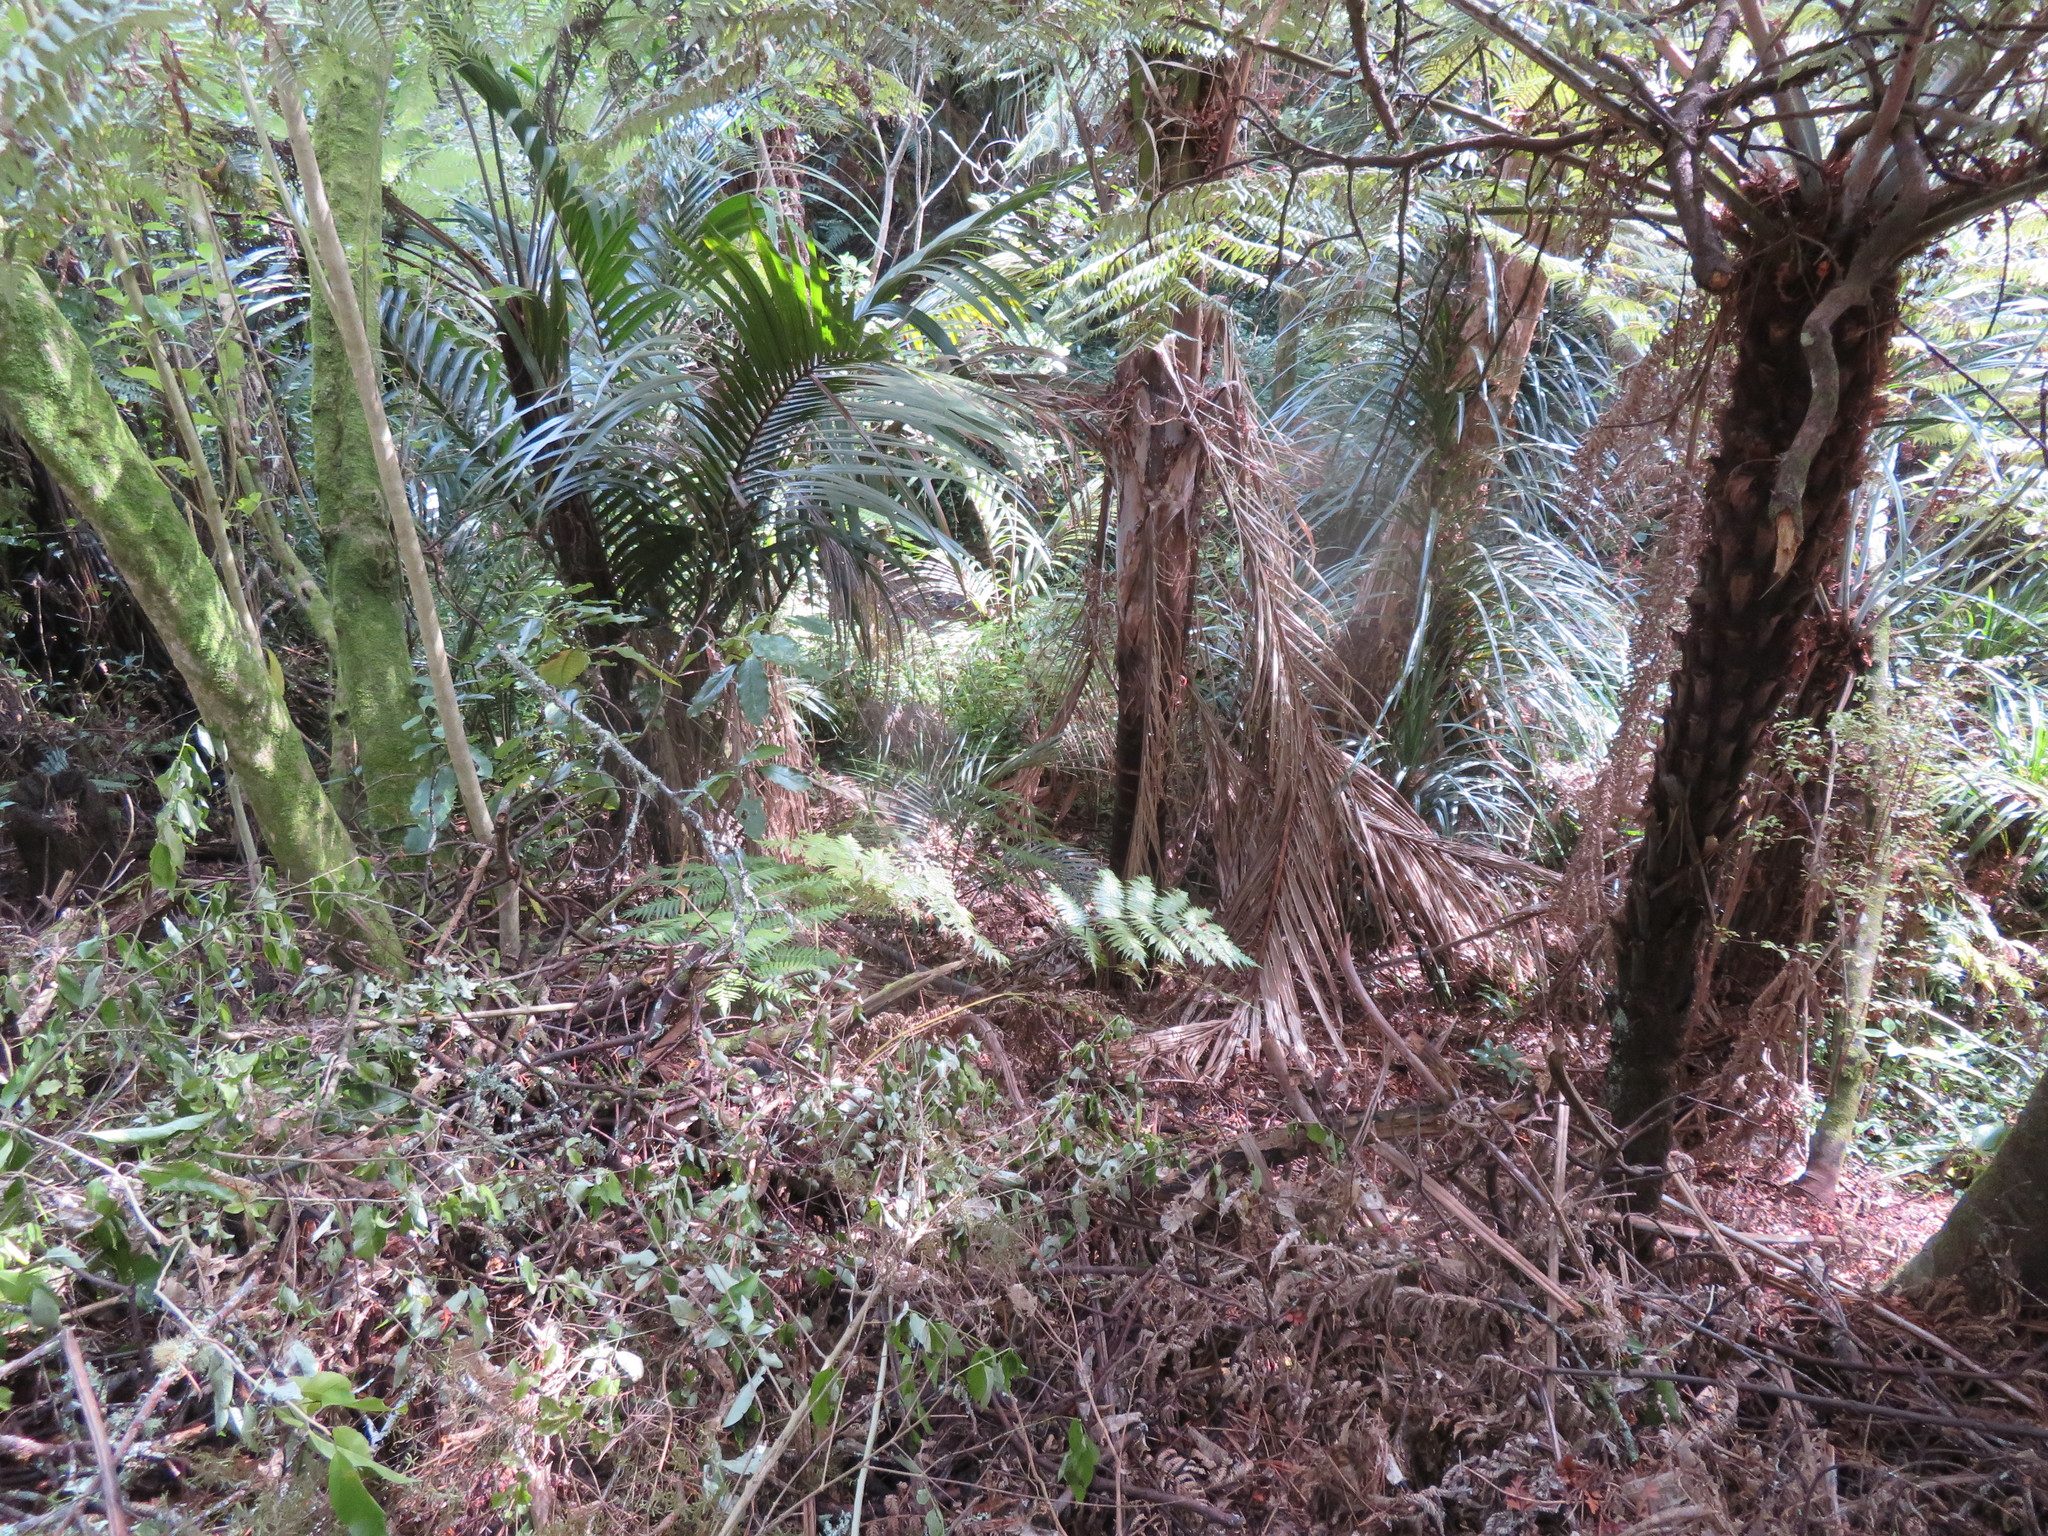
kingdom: Plantae
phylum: Tracheophyta
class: Liliopsida
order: Arecales
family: Arecaceae
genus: Rhopalostylis
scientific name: Rhopalostylis sapida
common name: Feather-duster palm
